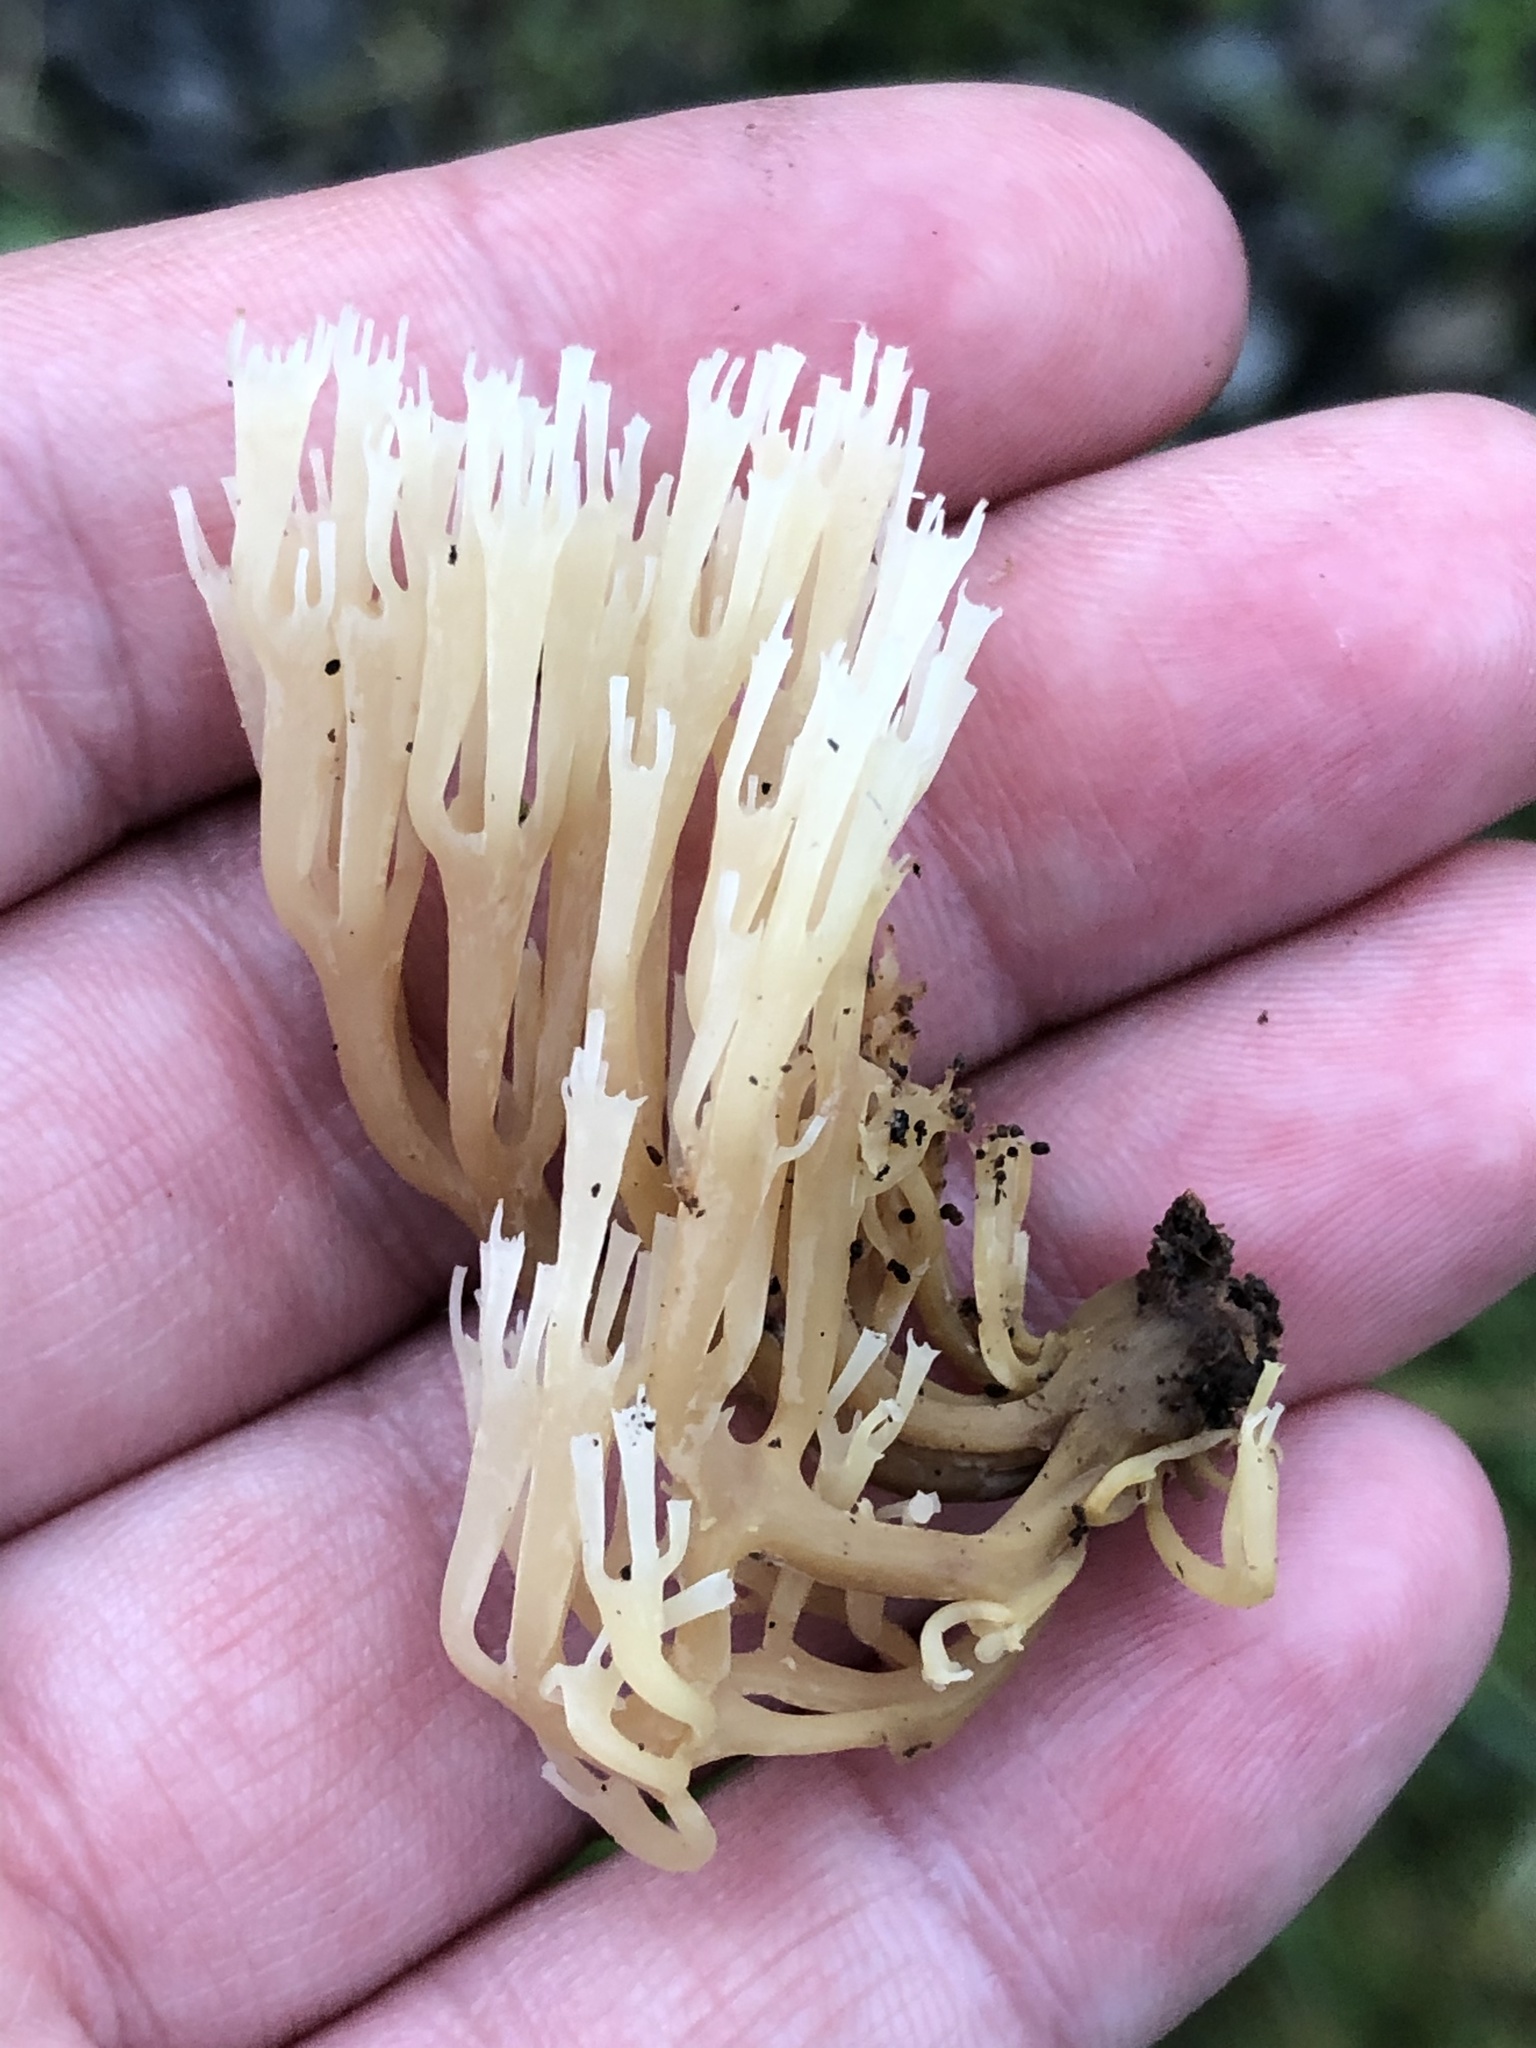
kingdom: Fungi
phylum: Basidiomycota
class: Agaricomycetes
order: Russulales
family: Auriscalpiaceae
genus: Artomyces
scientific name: Artomyces pyxidatus
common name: Crown-tipped coral fungus
